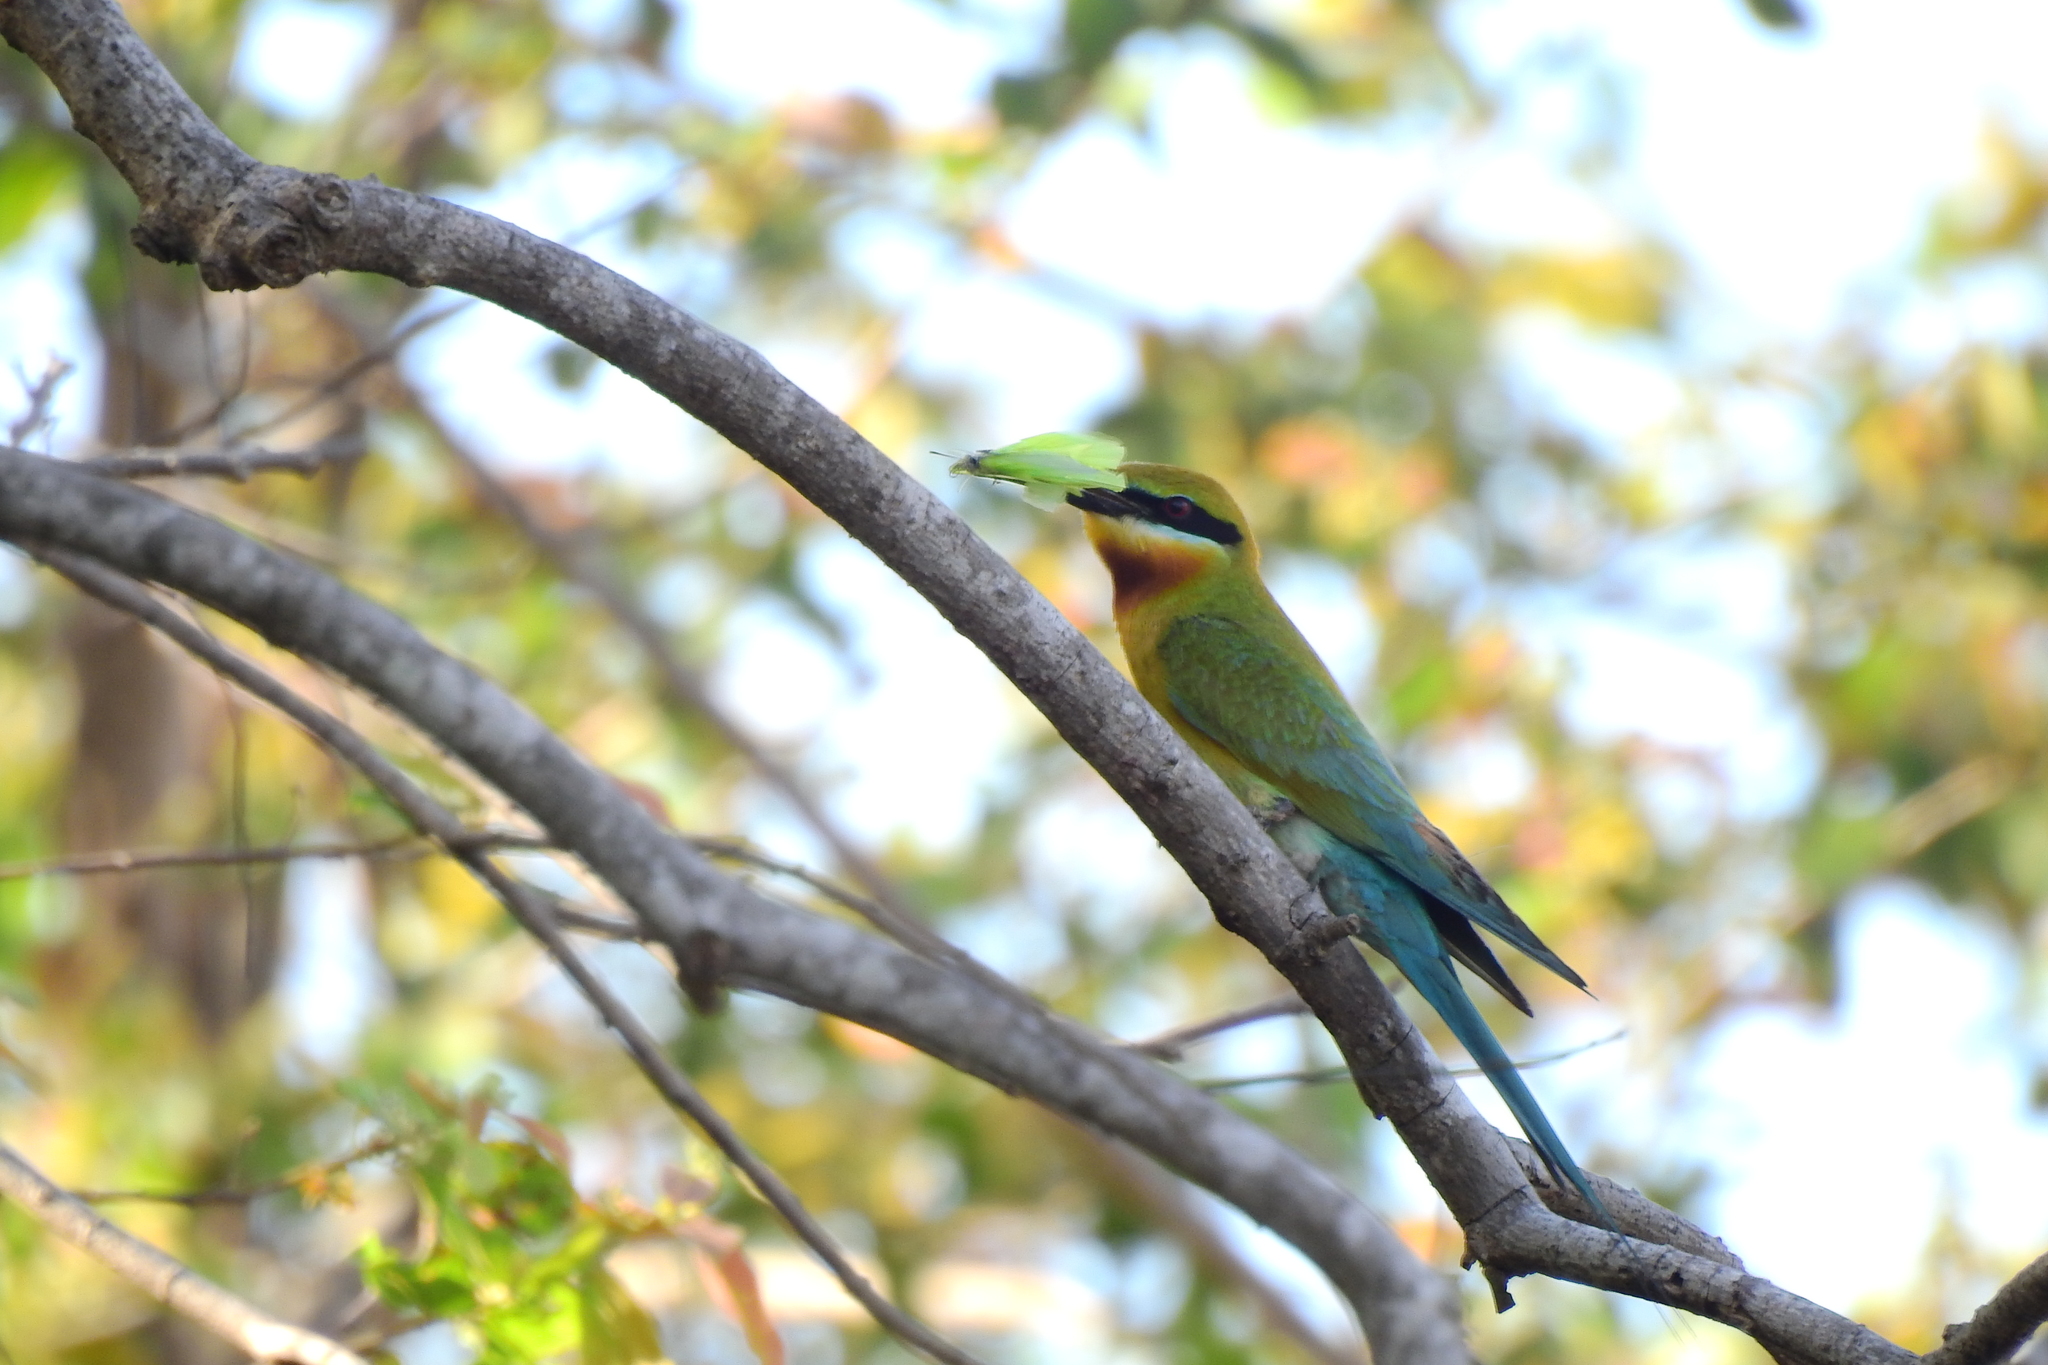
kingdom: Animalia
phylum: Chordata
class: Aves
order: Coraciiformes
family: Meropidae
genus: Merops
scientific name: Merops philippinus
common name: Blue-tailed bee-eater
